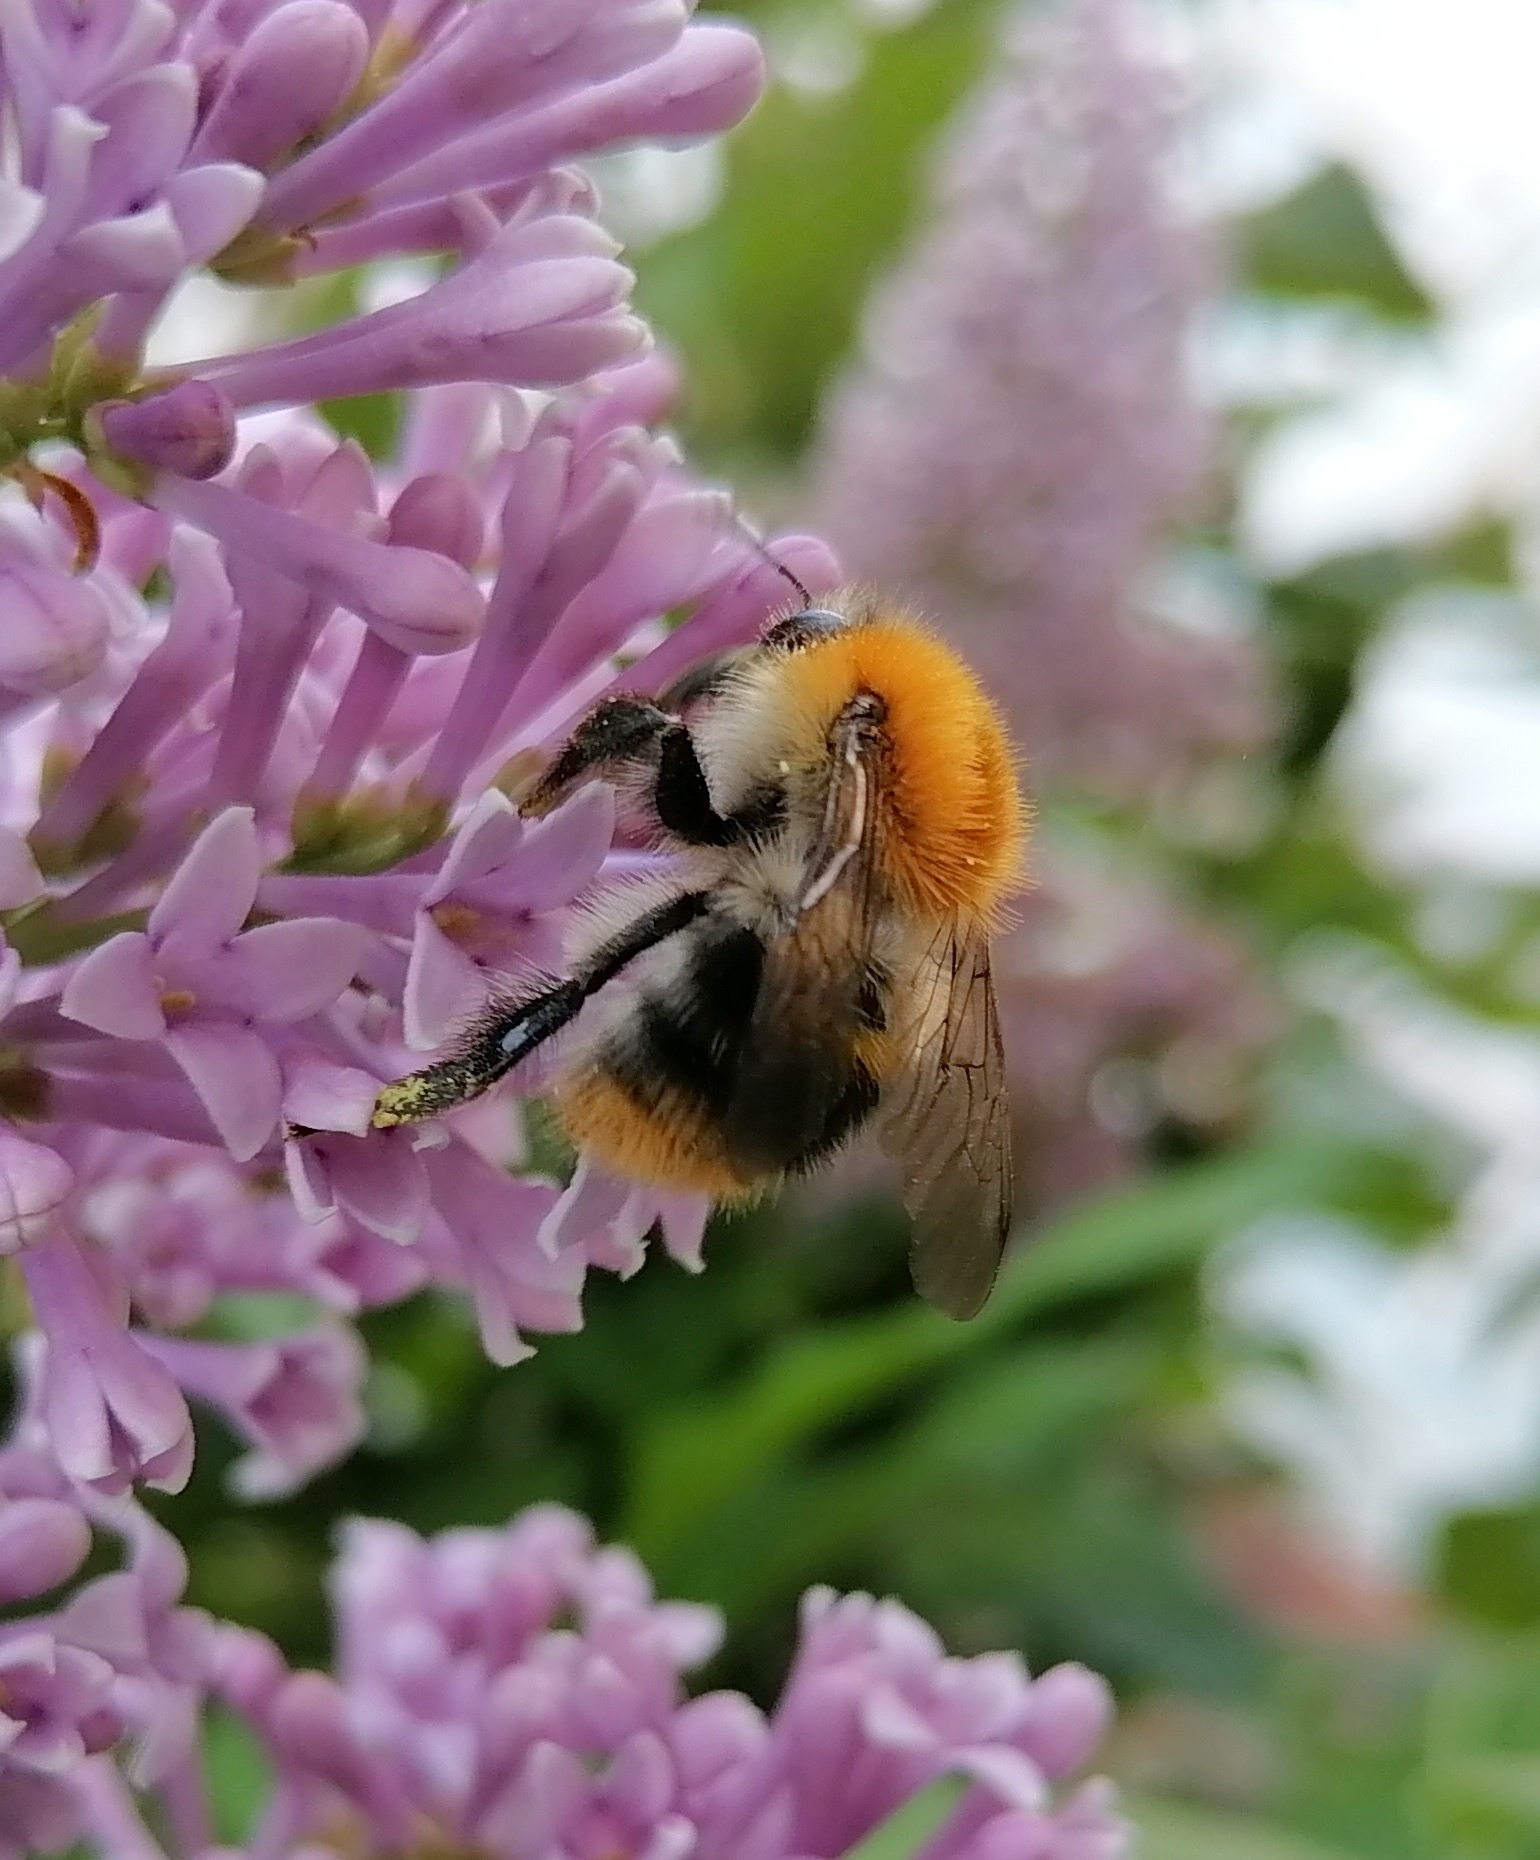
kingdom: Animalia
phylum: Arthropoda
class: Insecta
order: Hymenoptera
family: Apidae
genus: Bombus
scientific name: Bombus pascuorum
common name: Common carder bee
